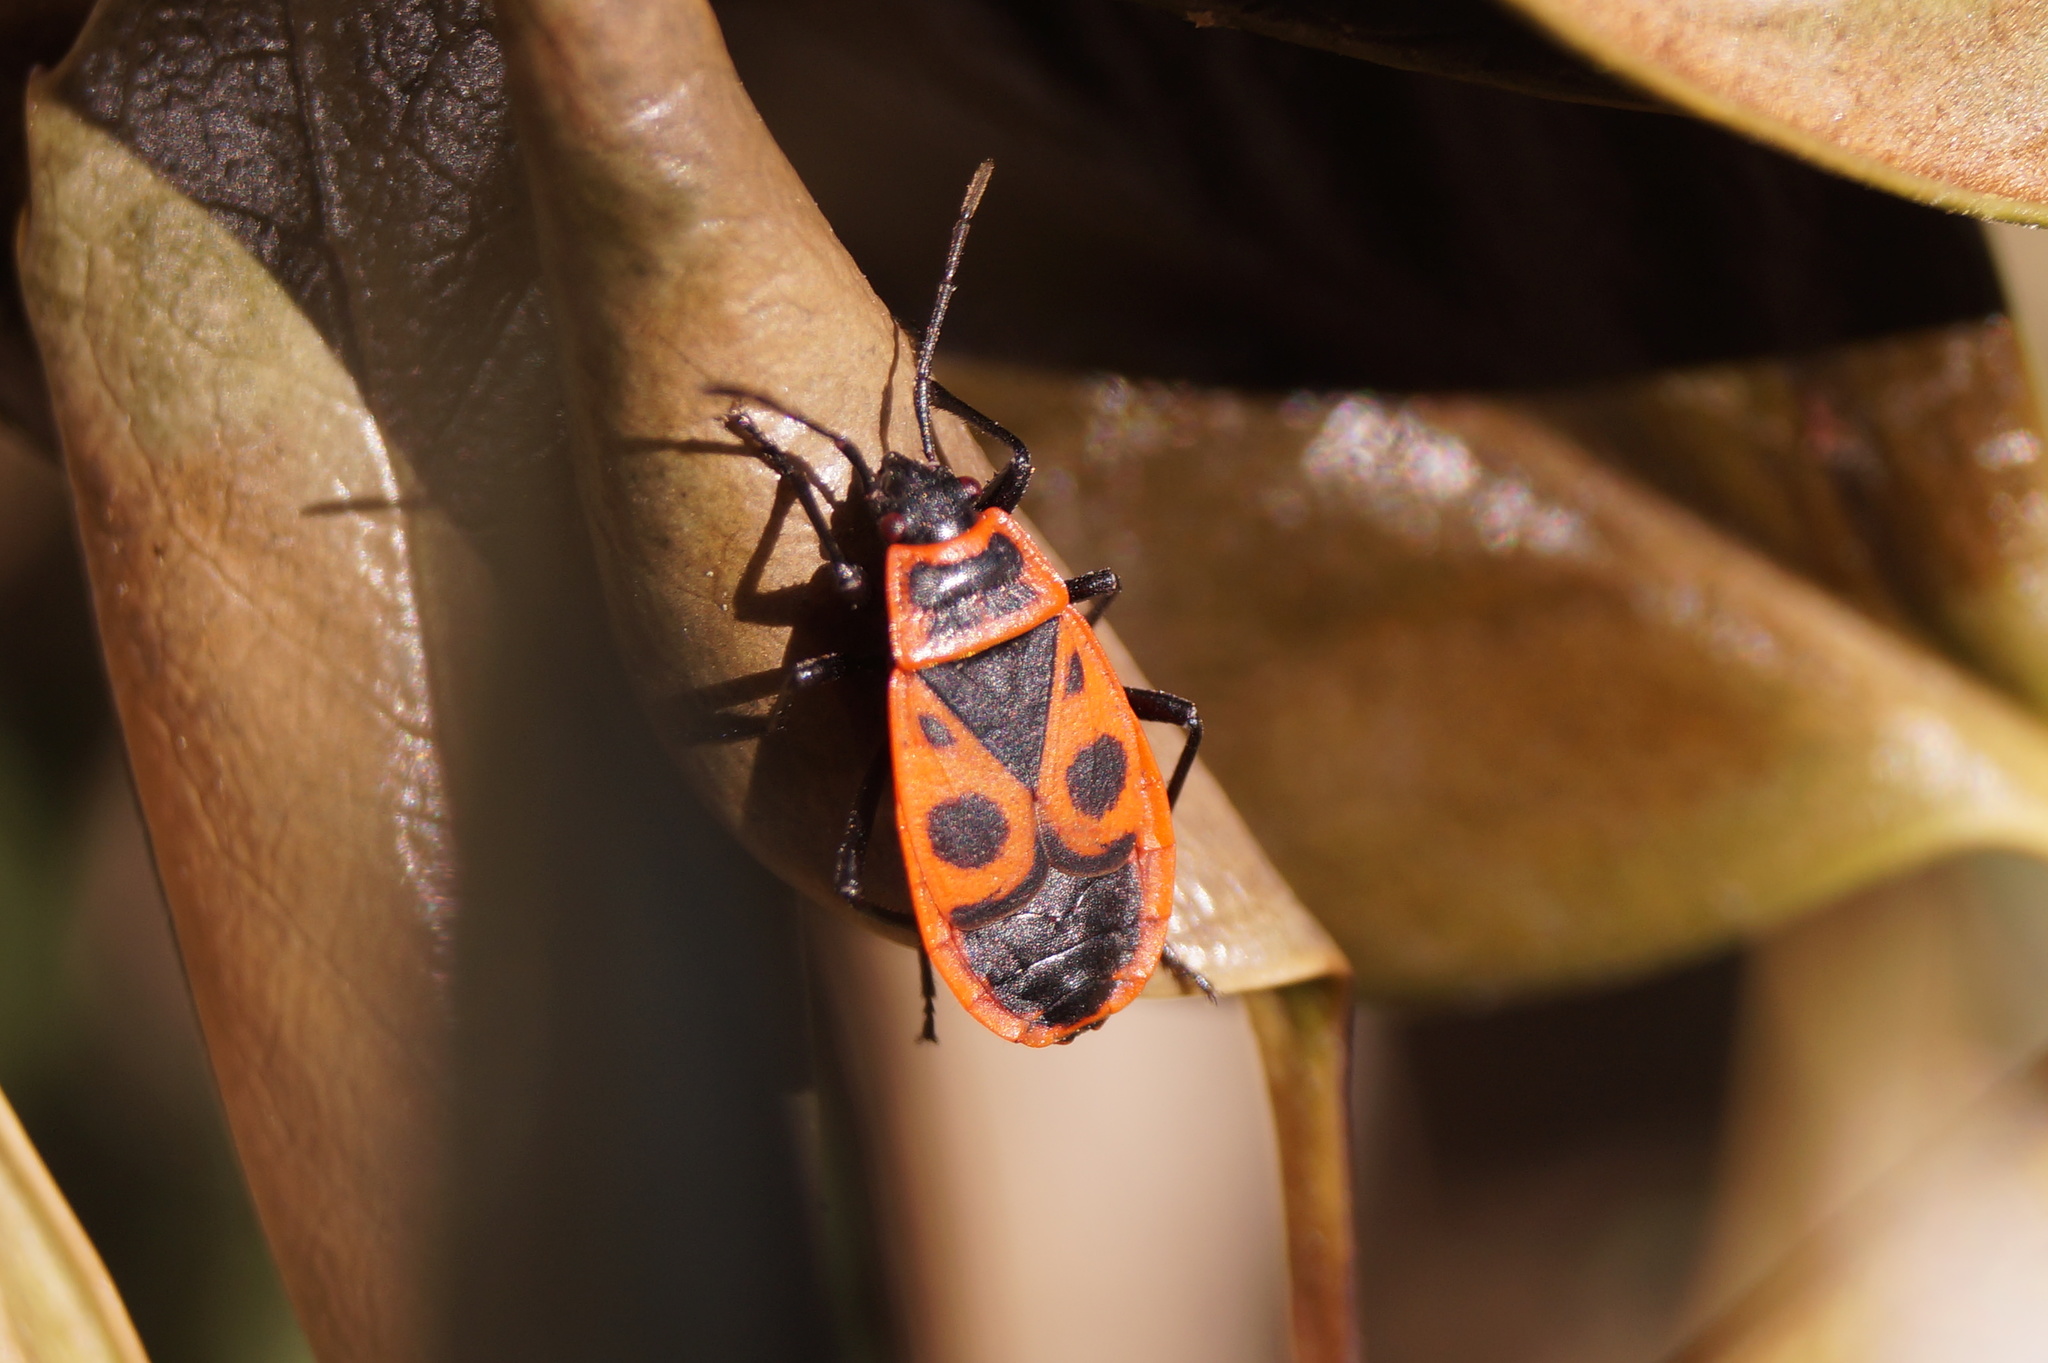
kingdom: Animalia
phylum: Arthropoda
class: Insecta
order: Hemiptera
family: Pyrrhocoridae
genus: Pyrrhocoris
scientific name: Pyrrhocoris apterus
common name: Firebug
